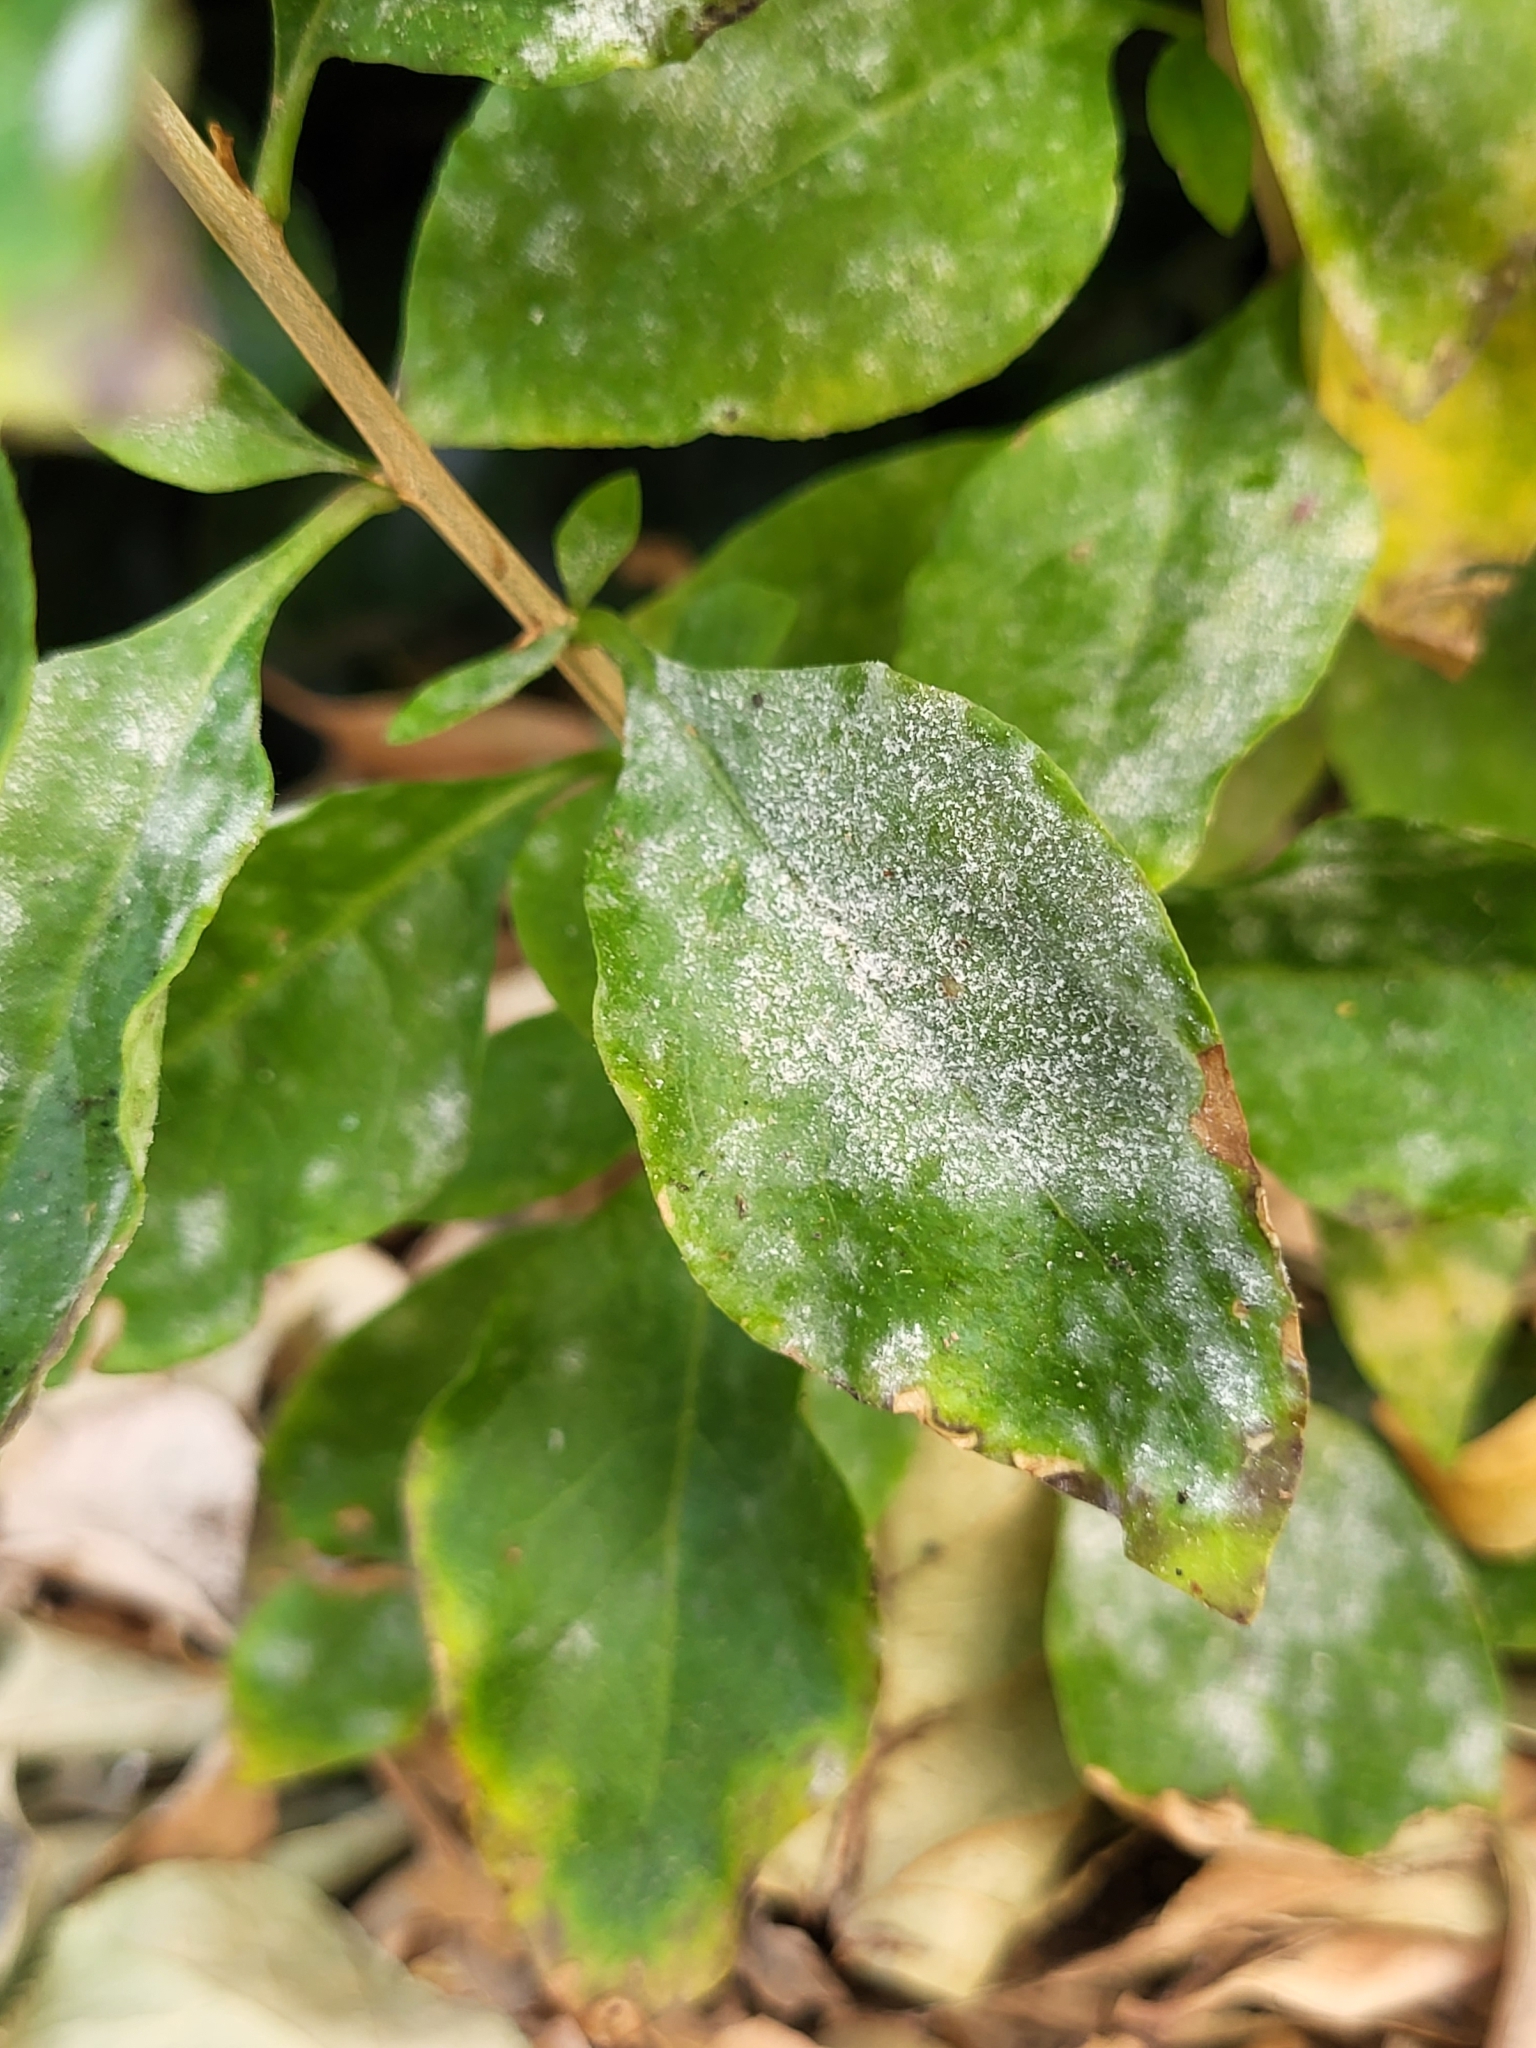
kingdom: Fungi
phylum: Ascomycota
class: Leotiomycetes
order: Helotiales
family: Erysiphaceae
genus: Erysiphe
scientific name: Erysiphe mougeotii
